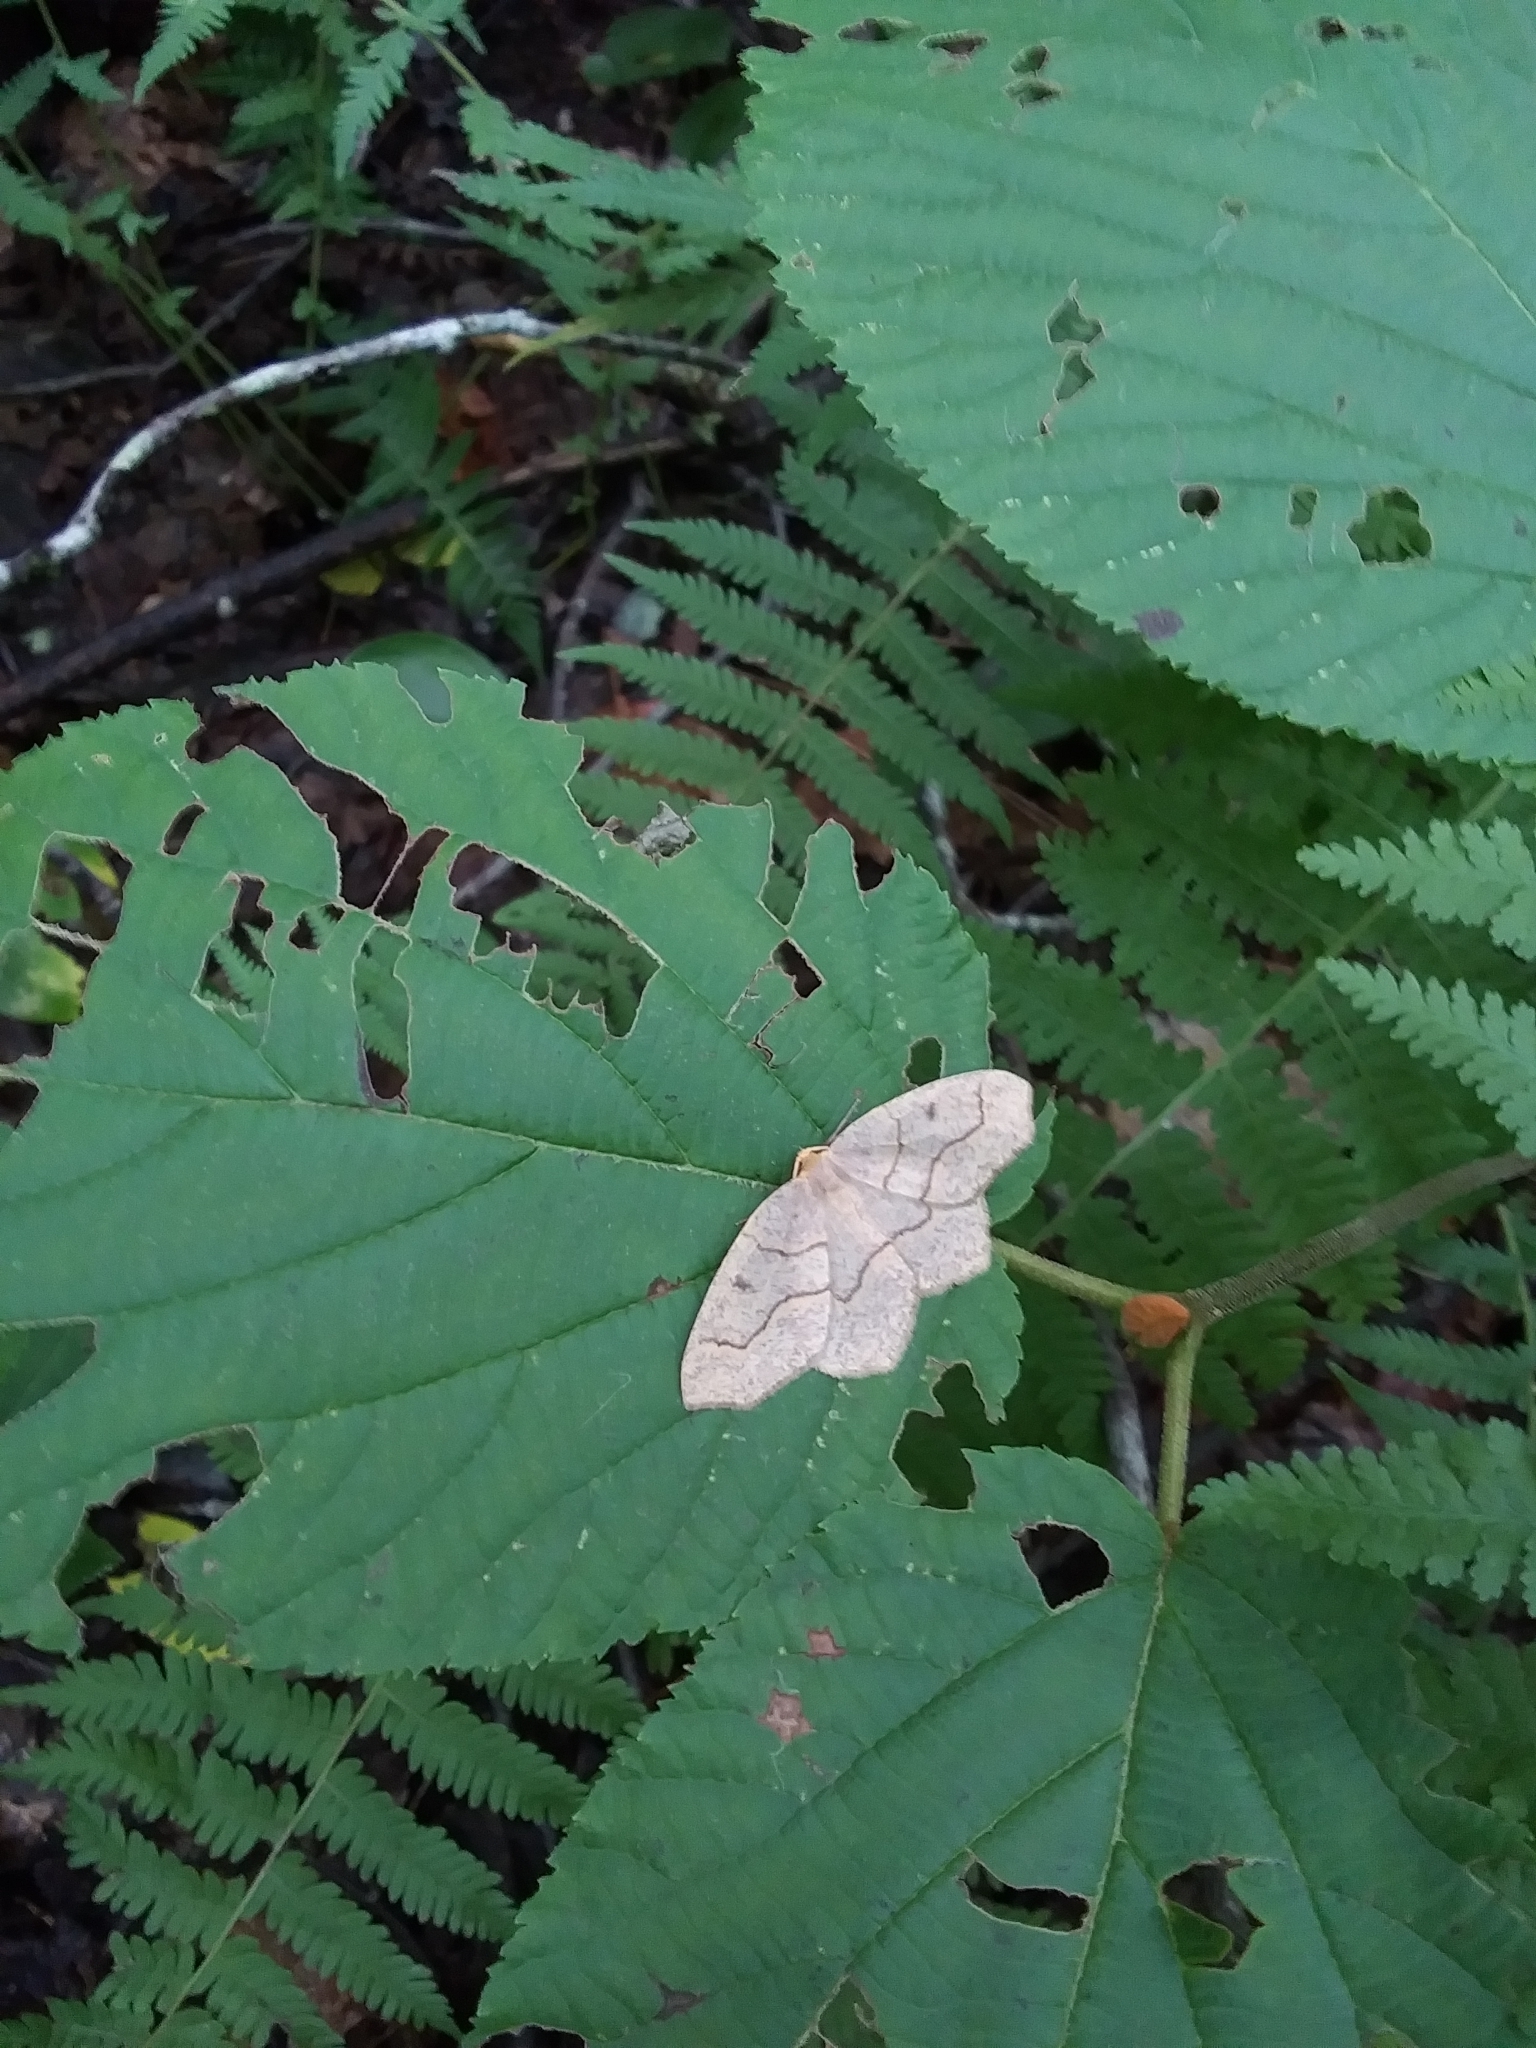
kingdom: Animalia
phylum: Arthropoda
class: Insecta
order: Lepidoptera
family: Geometridae
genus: Lambdina
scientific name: Lambdina fiscellaria
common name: Hemlock looper
